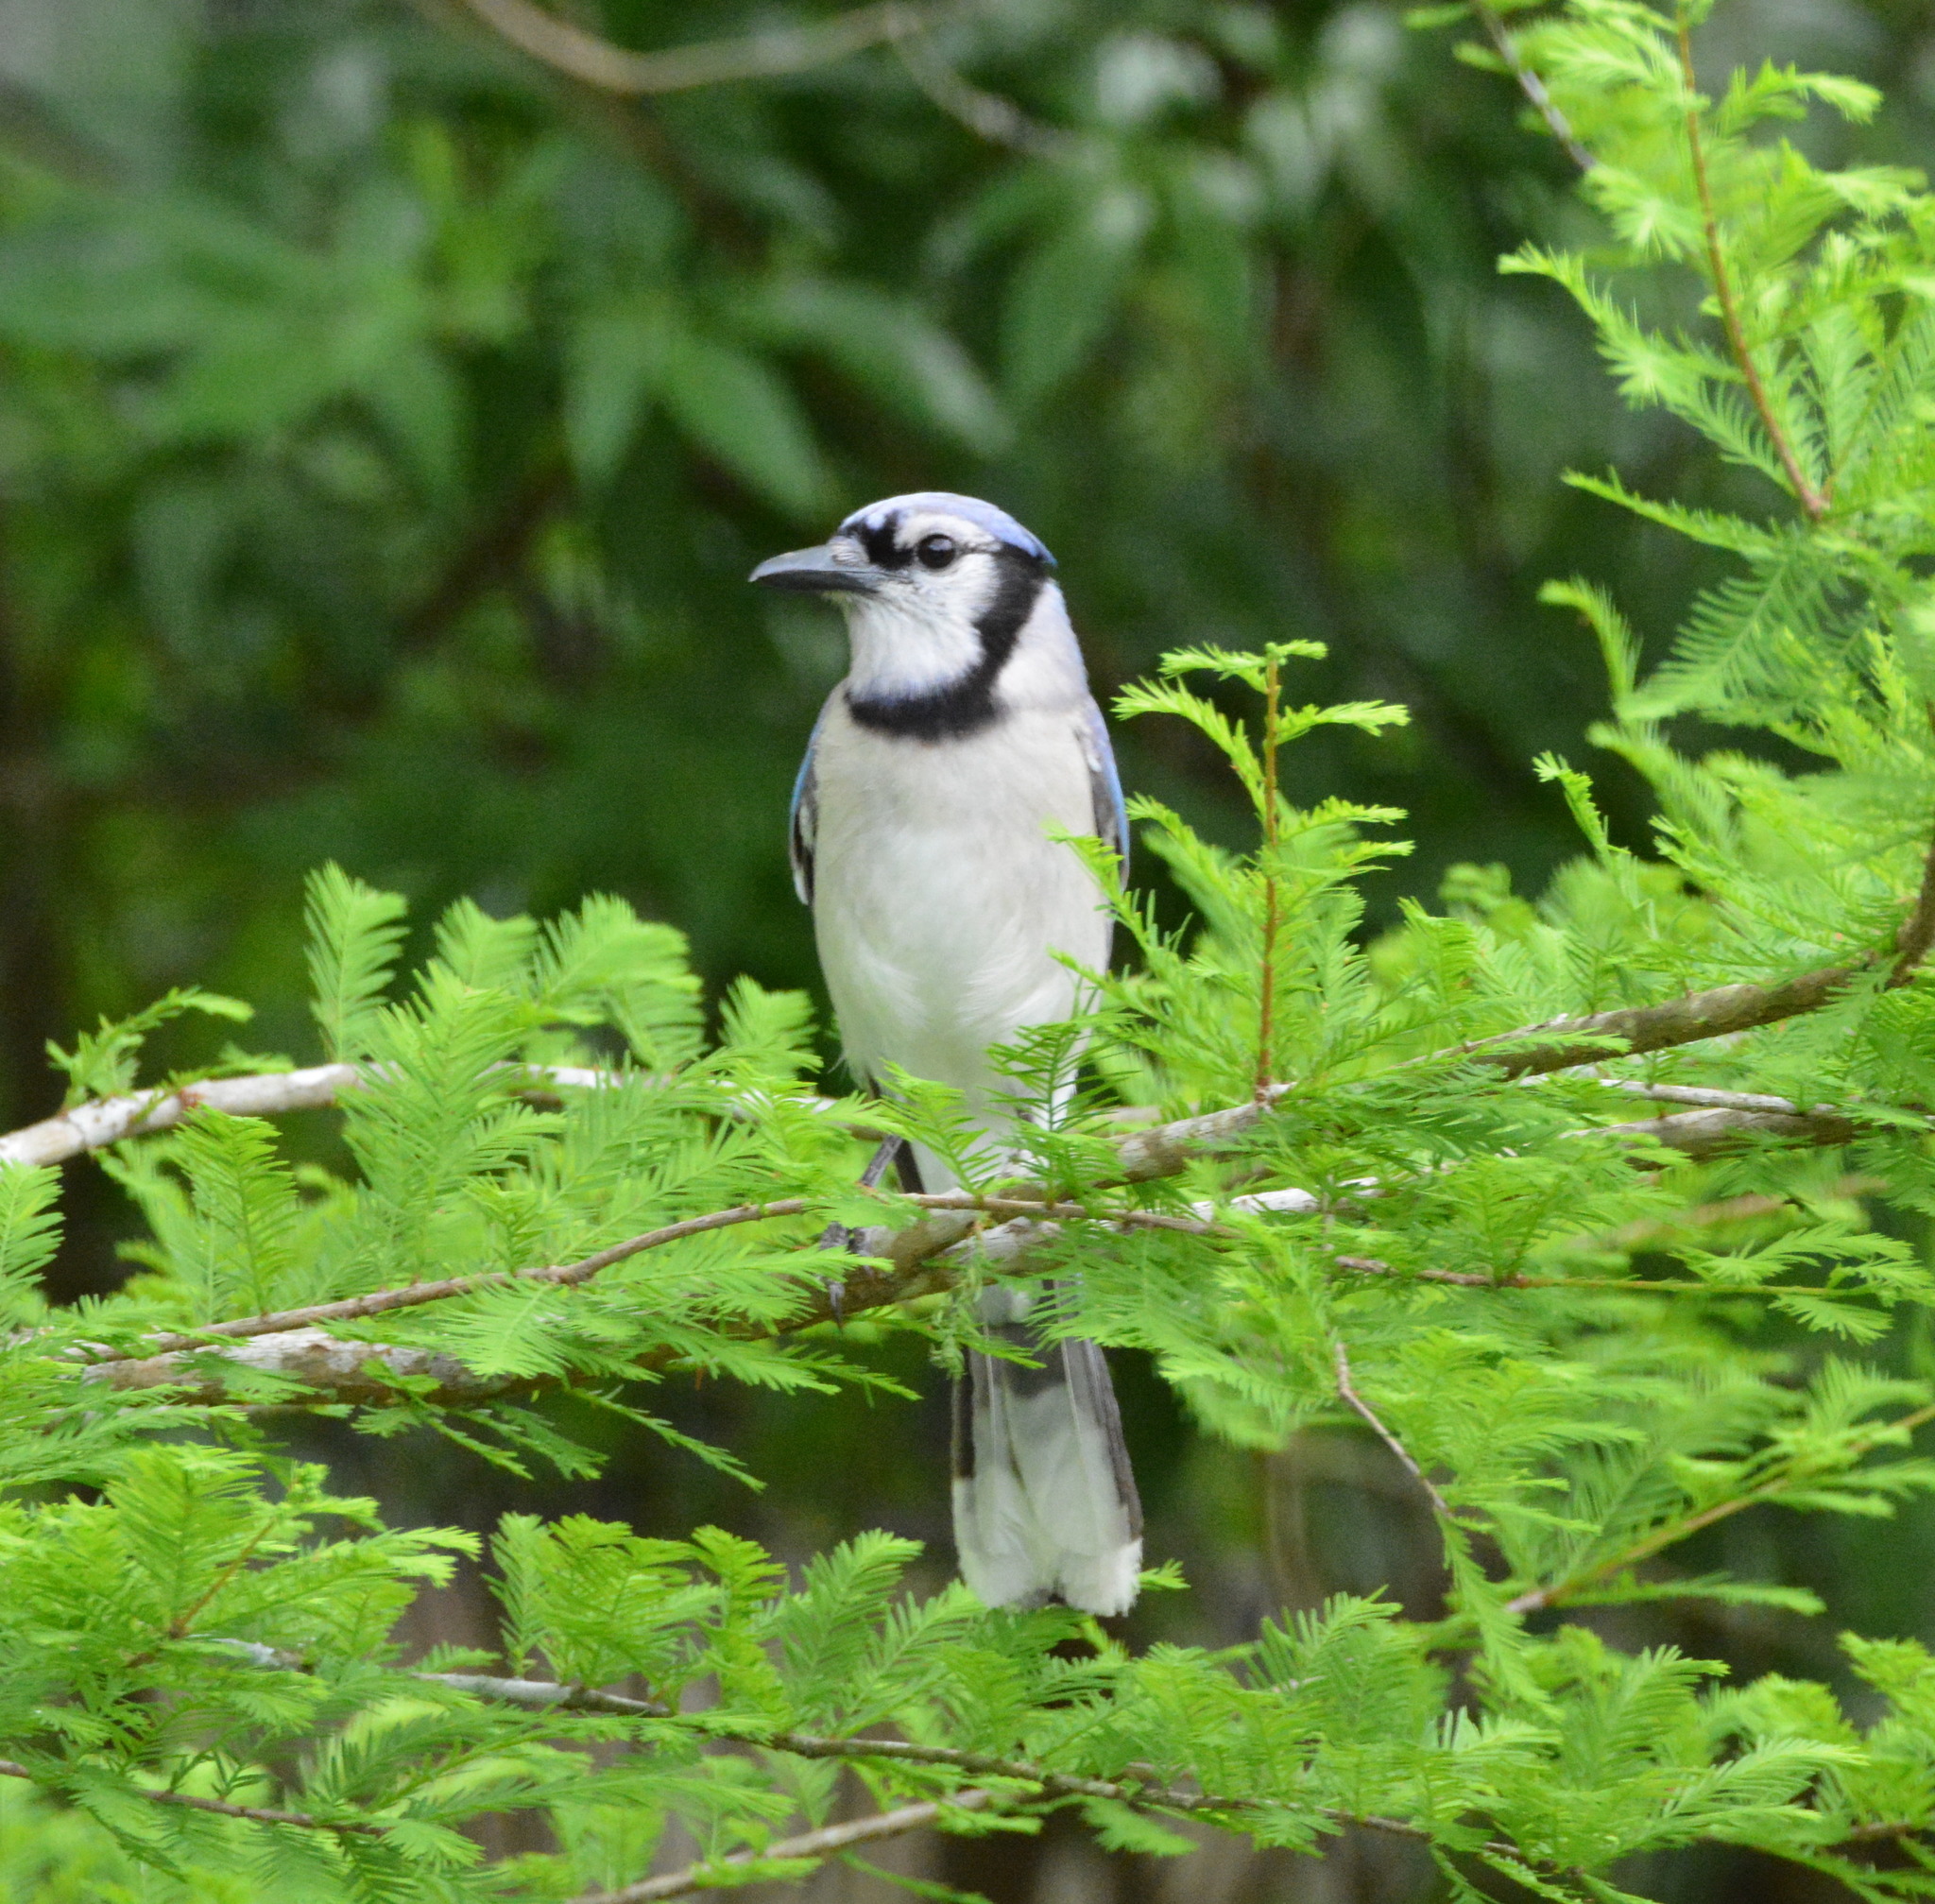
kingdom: Animalia
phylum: Chordata
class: Aves
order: Passeriformes
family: Corvidae
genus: Cyanocitta
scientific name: Cyanocitta cristata
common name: Blue jay
